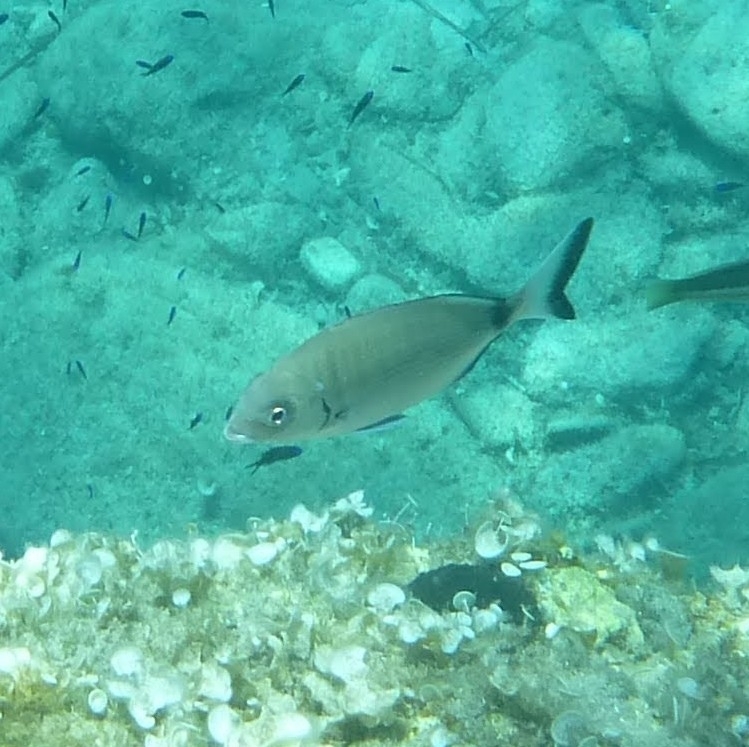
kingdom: Animalia
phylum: Chordata
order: Perciformes
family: Sparidae
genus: Diplodus
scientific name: Diplodus sargus
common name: White seabream
